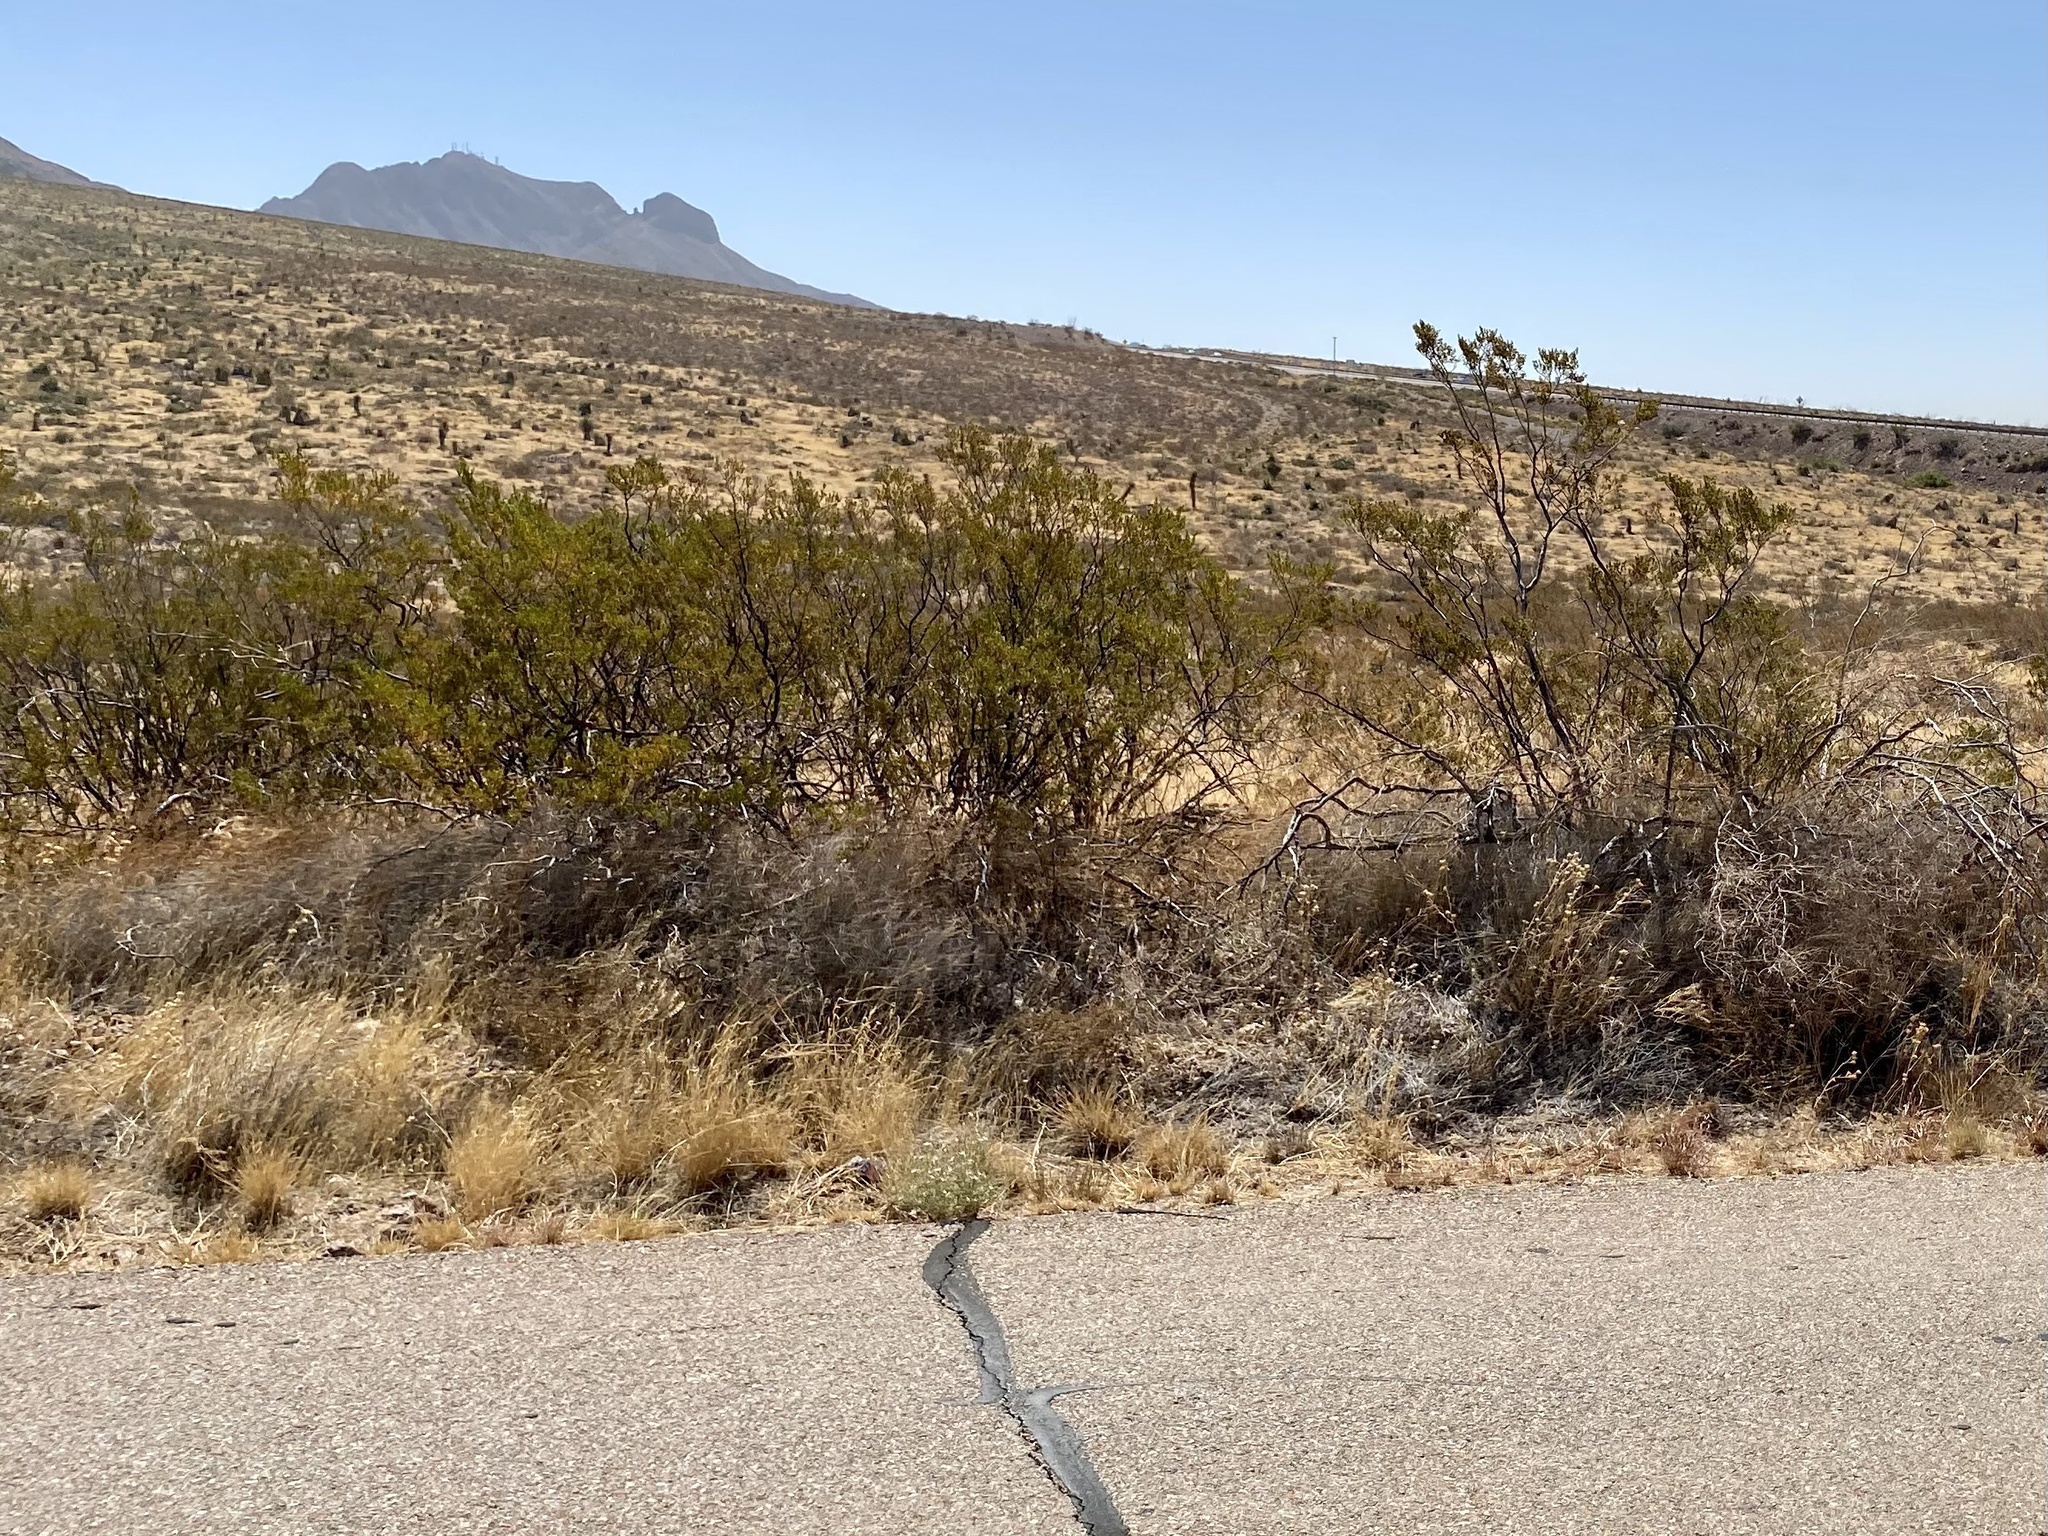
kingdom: Plantae
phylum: Tracheophyta
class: Magnoliopsida
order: Zygophyllales
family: Zygophyllaceae
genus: Larrea
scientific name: Larrea tridentata
